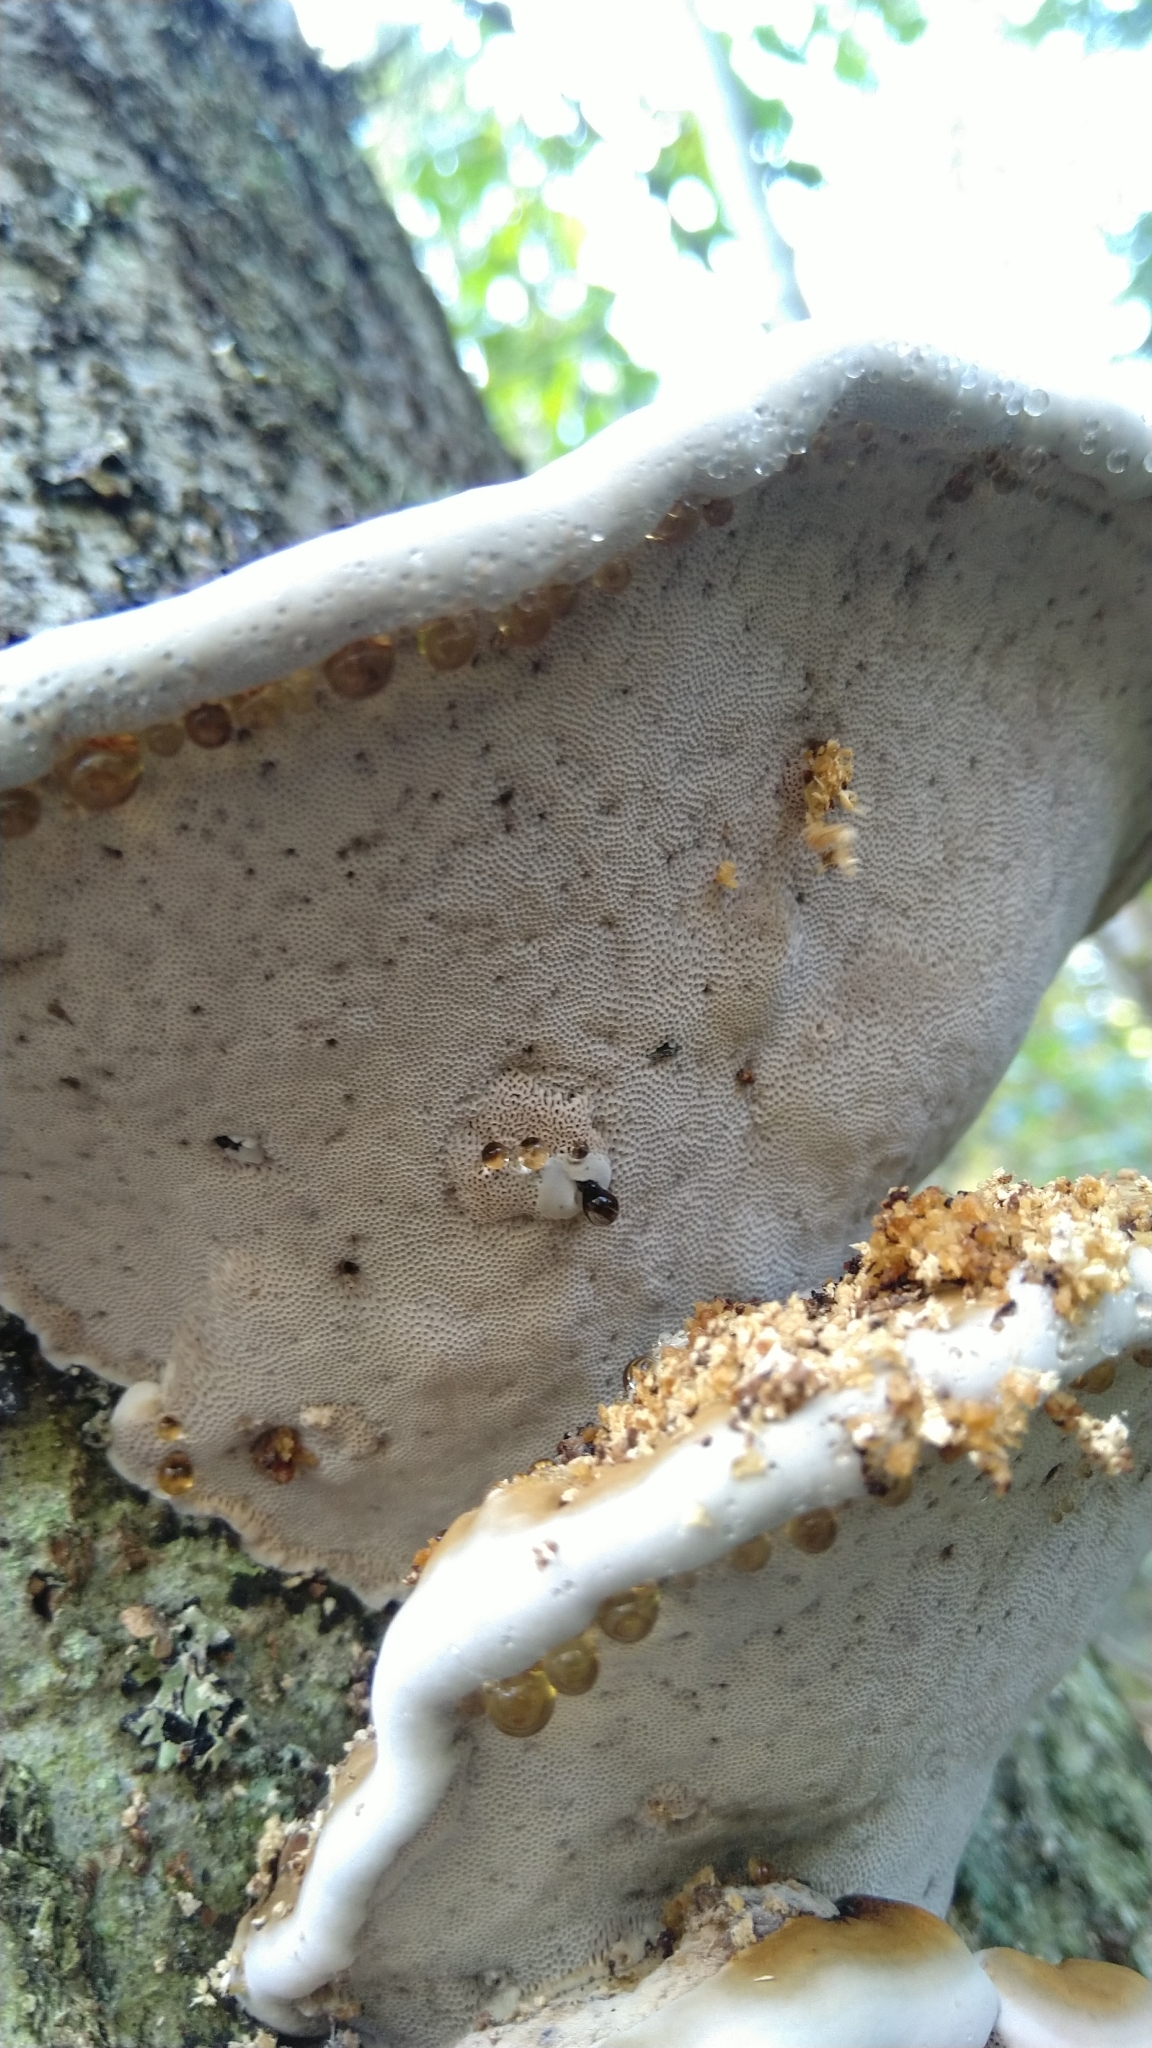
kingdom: Fungi
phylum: Basidiomycota
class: Agaricomycetes
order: Polyporales
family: Polyporaceae
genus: Fomes
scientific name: Fomes fomentarius
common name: Hoof fungus
